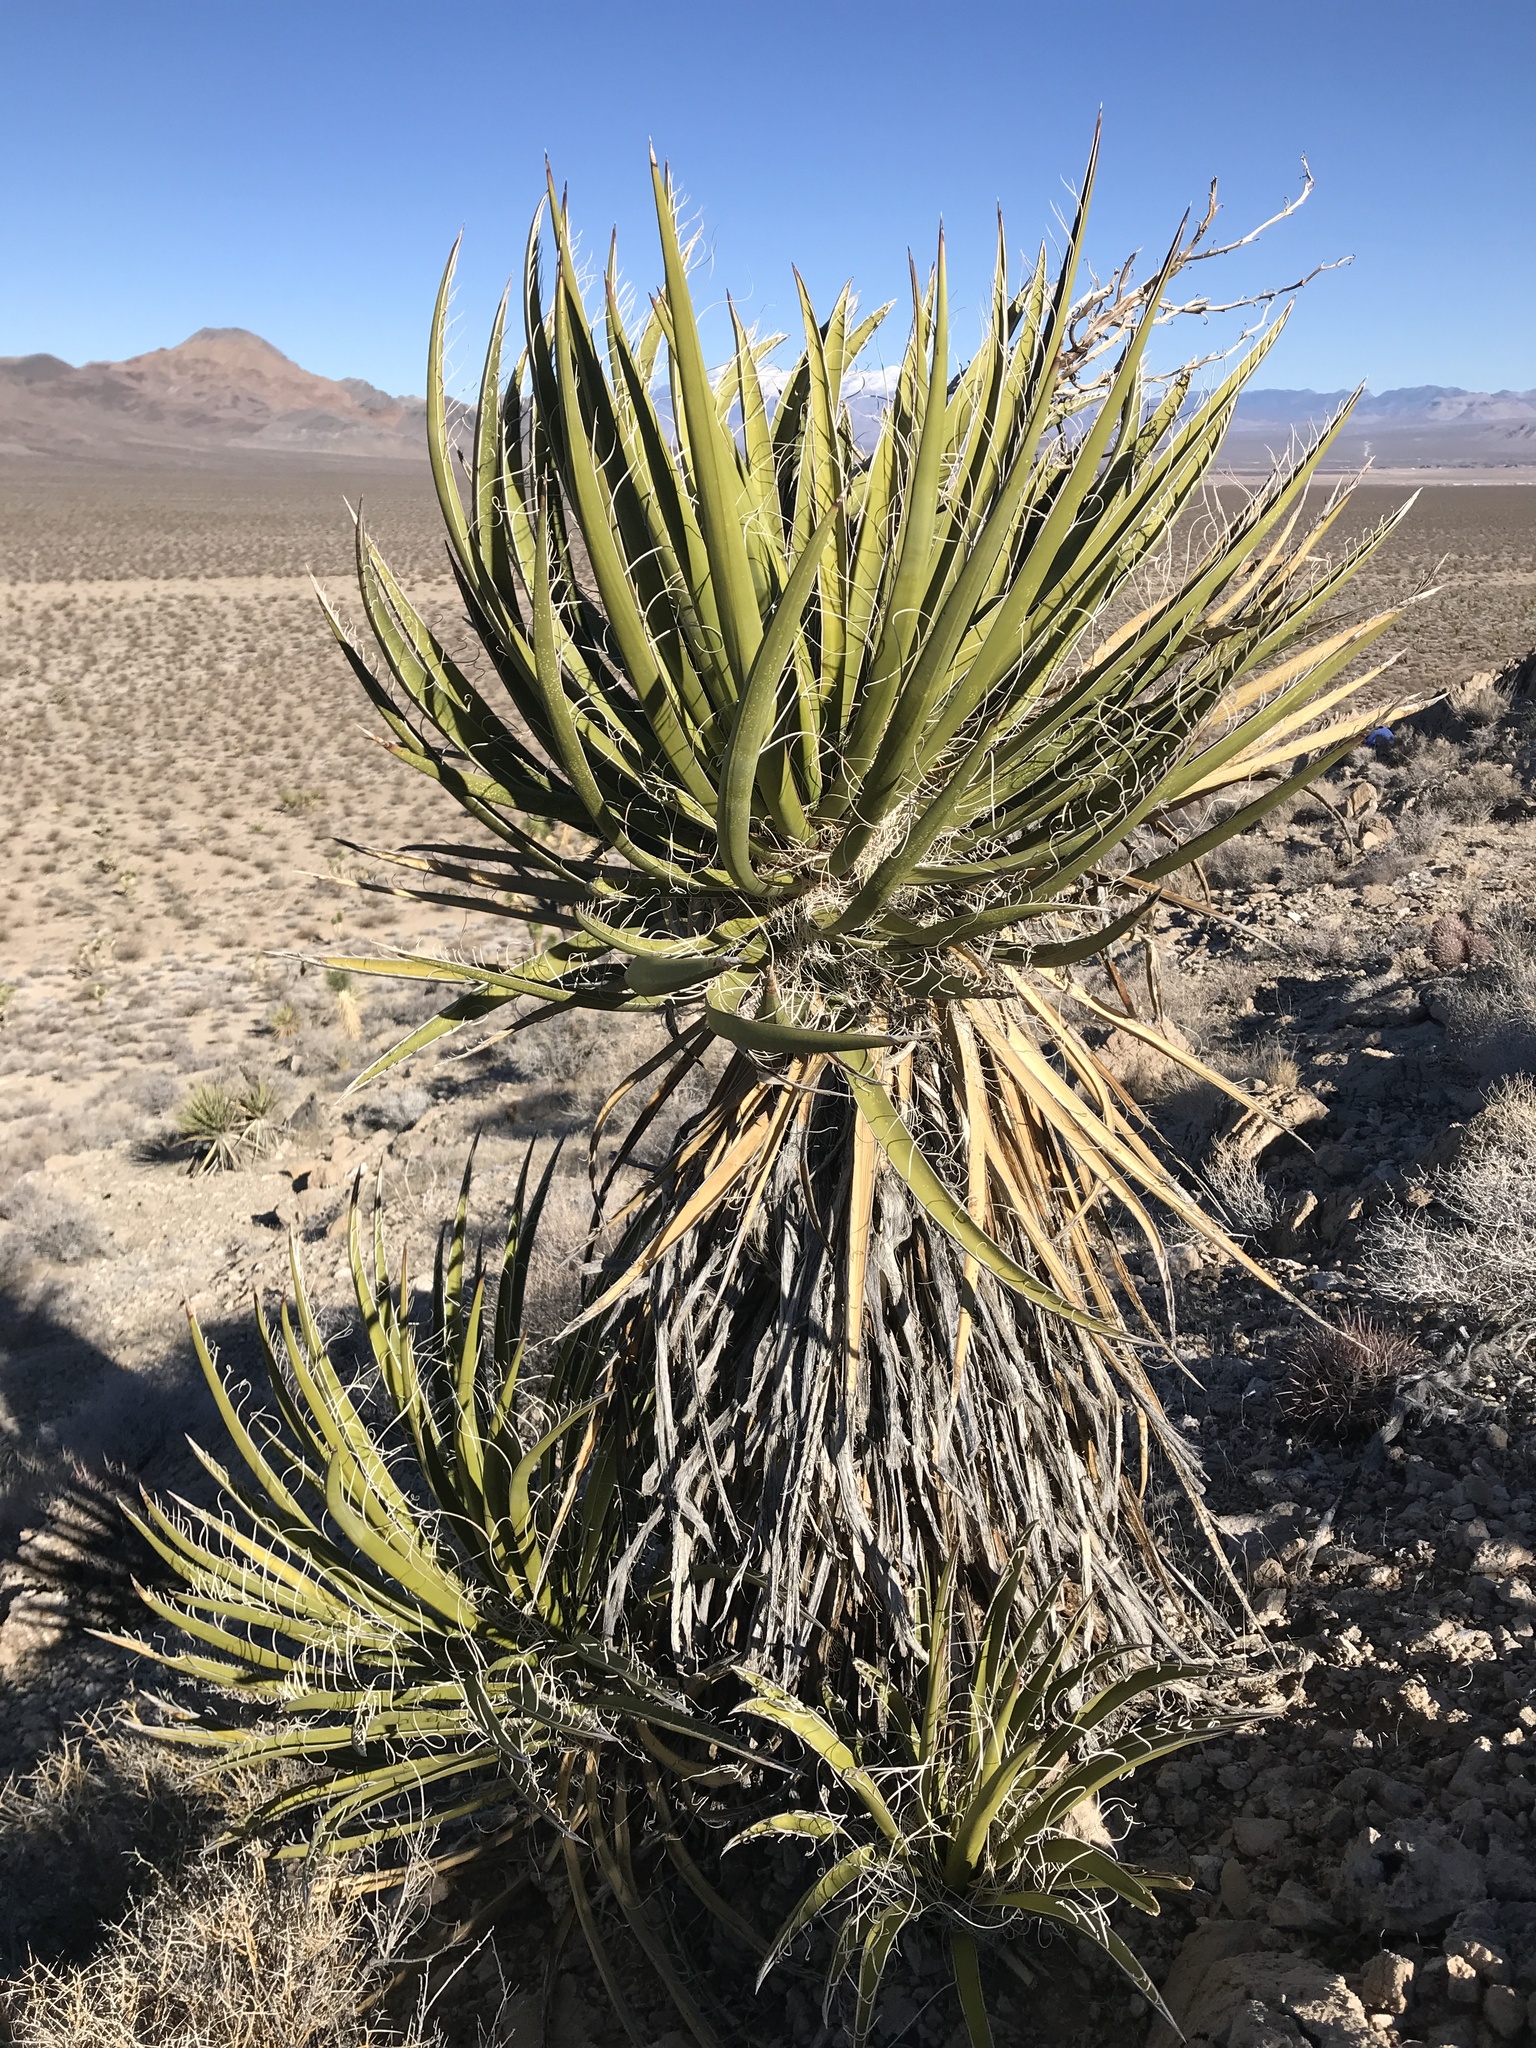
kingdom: Plantae
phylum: Tracheophyta
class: Liliopsida
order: Asparagales
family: Asparagaceae
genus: Yucca
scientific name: Yucca schidigera
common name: Mojave yucca
